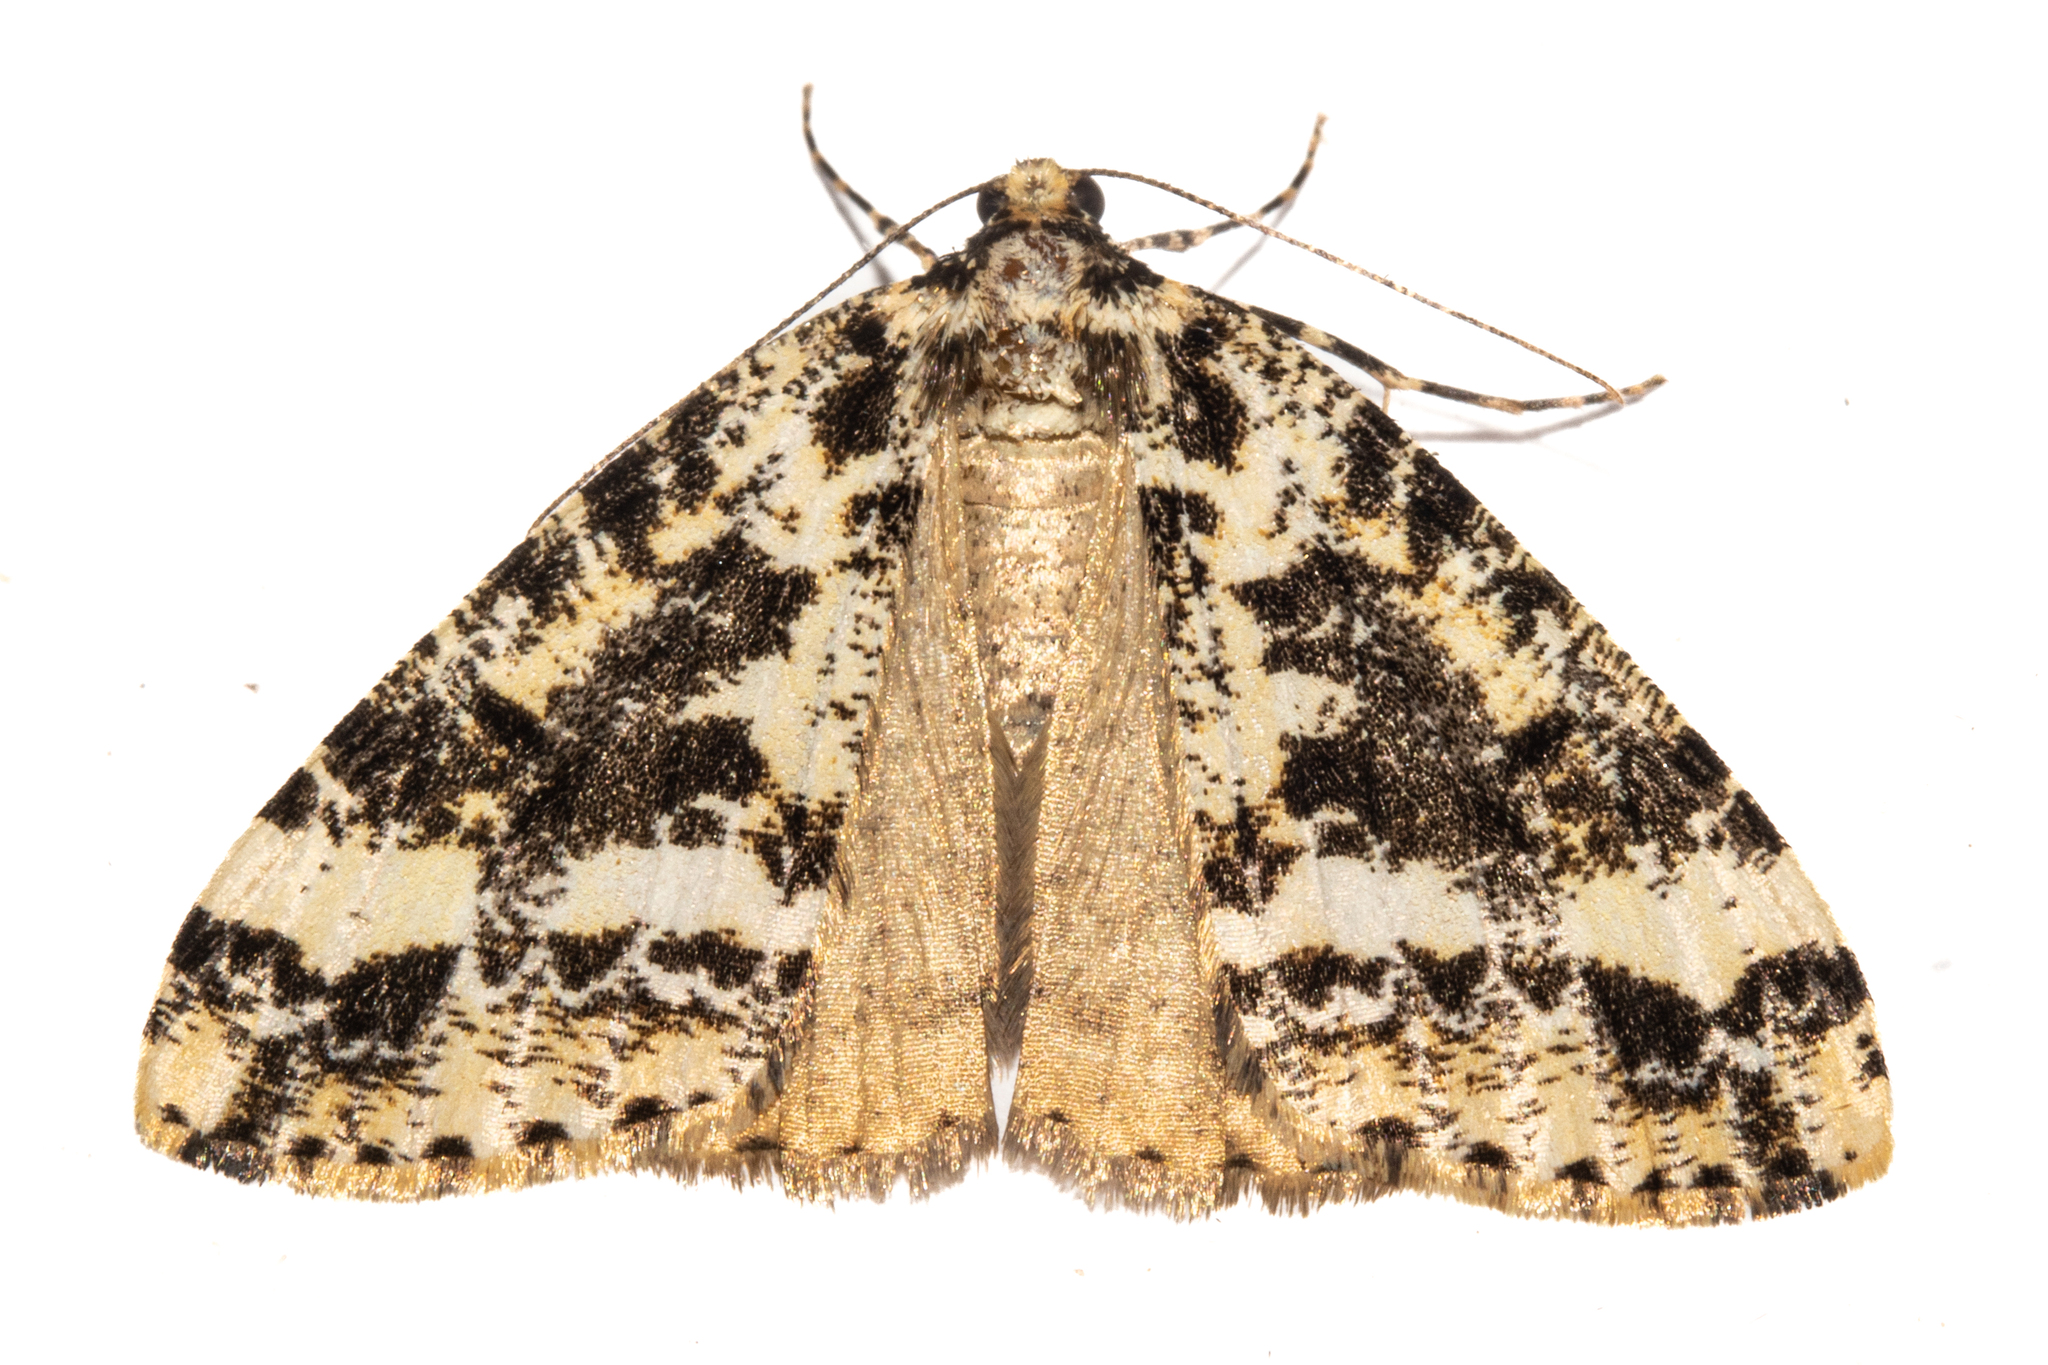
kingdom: Animalia
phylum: Arthropoda
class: Insecta
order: Lepidoptera
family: Geometridae
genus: Pseudocoremia
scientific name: Pseudocoremia leucelaea
